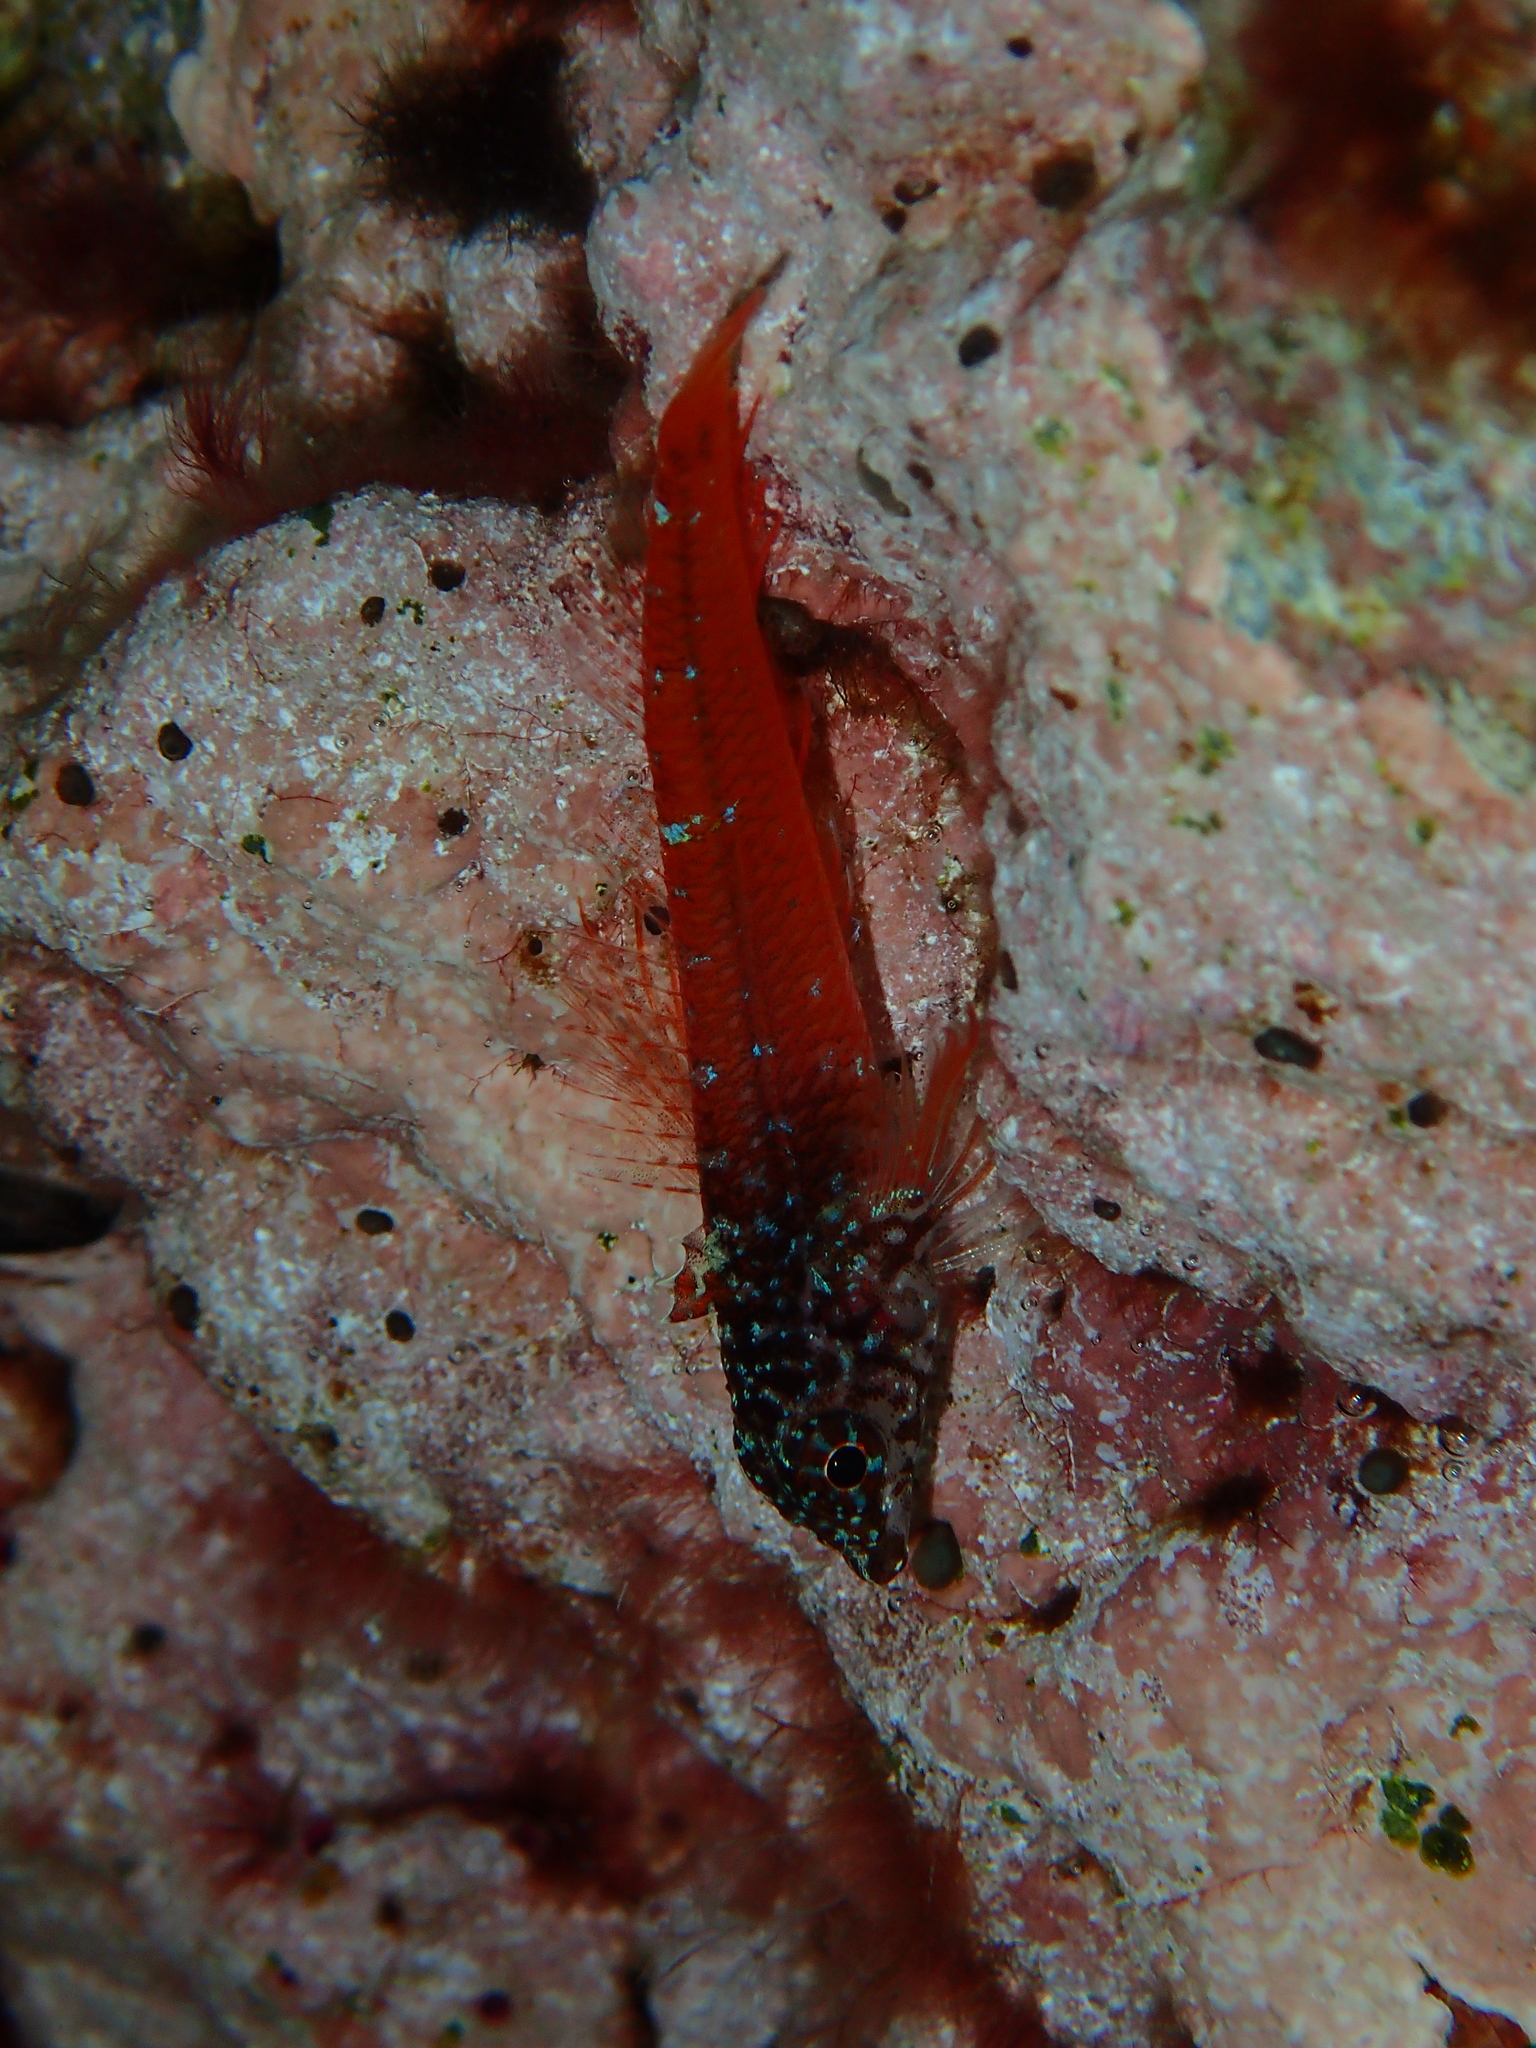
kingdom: Animalia
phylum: Chordata
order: Perciformes
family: Tripterygiidae
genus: Tripterygion
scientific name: Tripterygion melanurum
